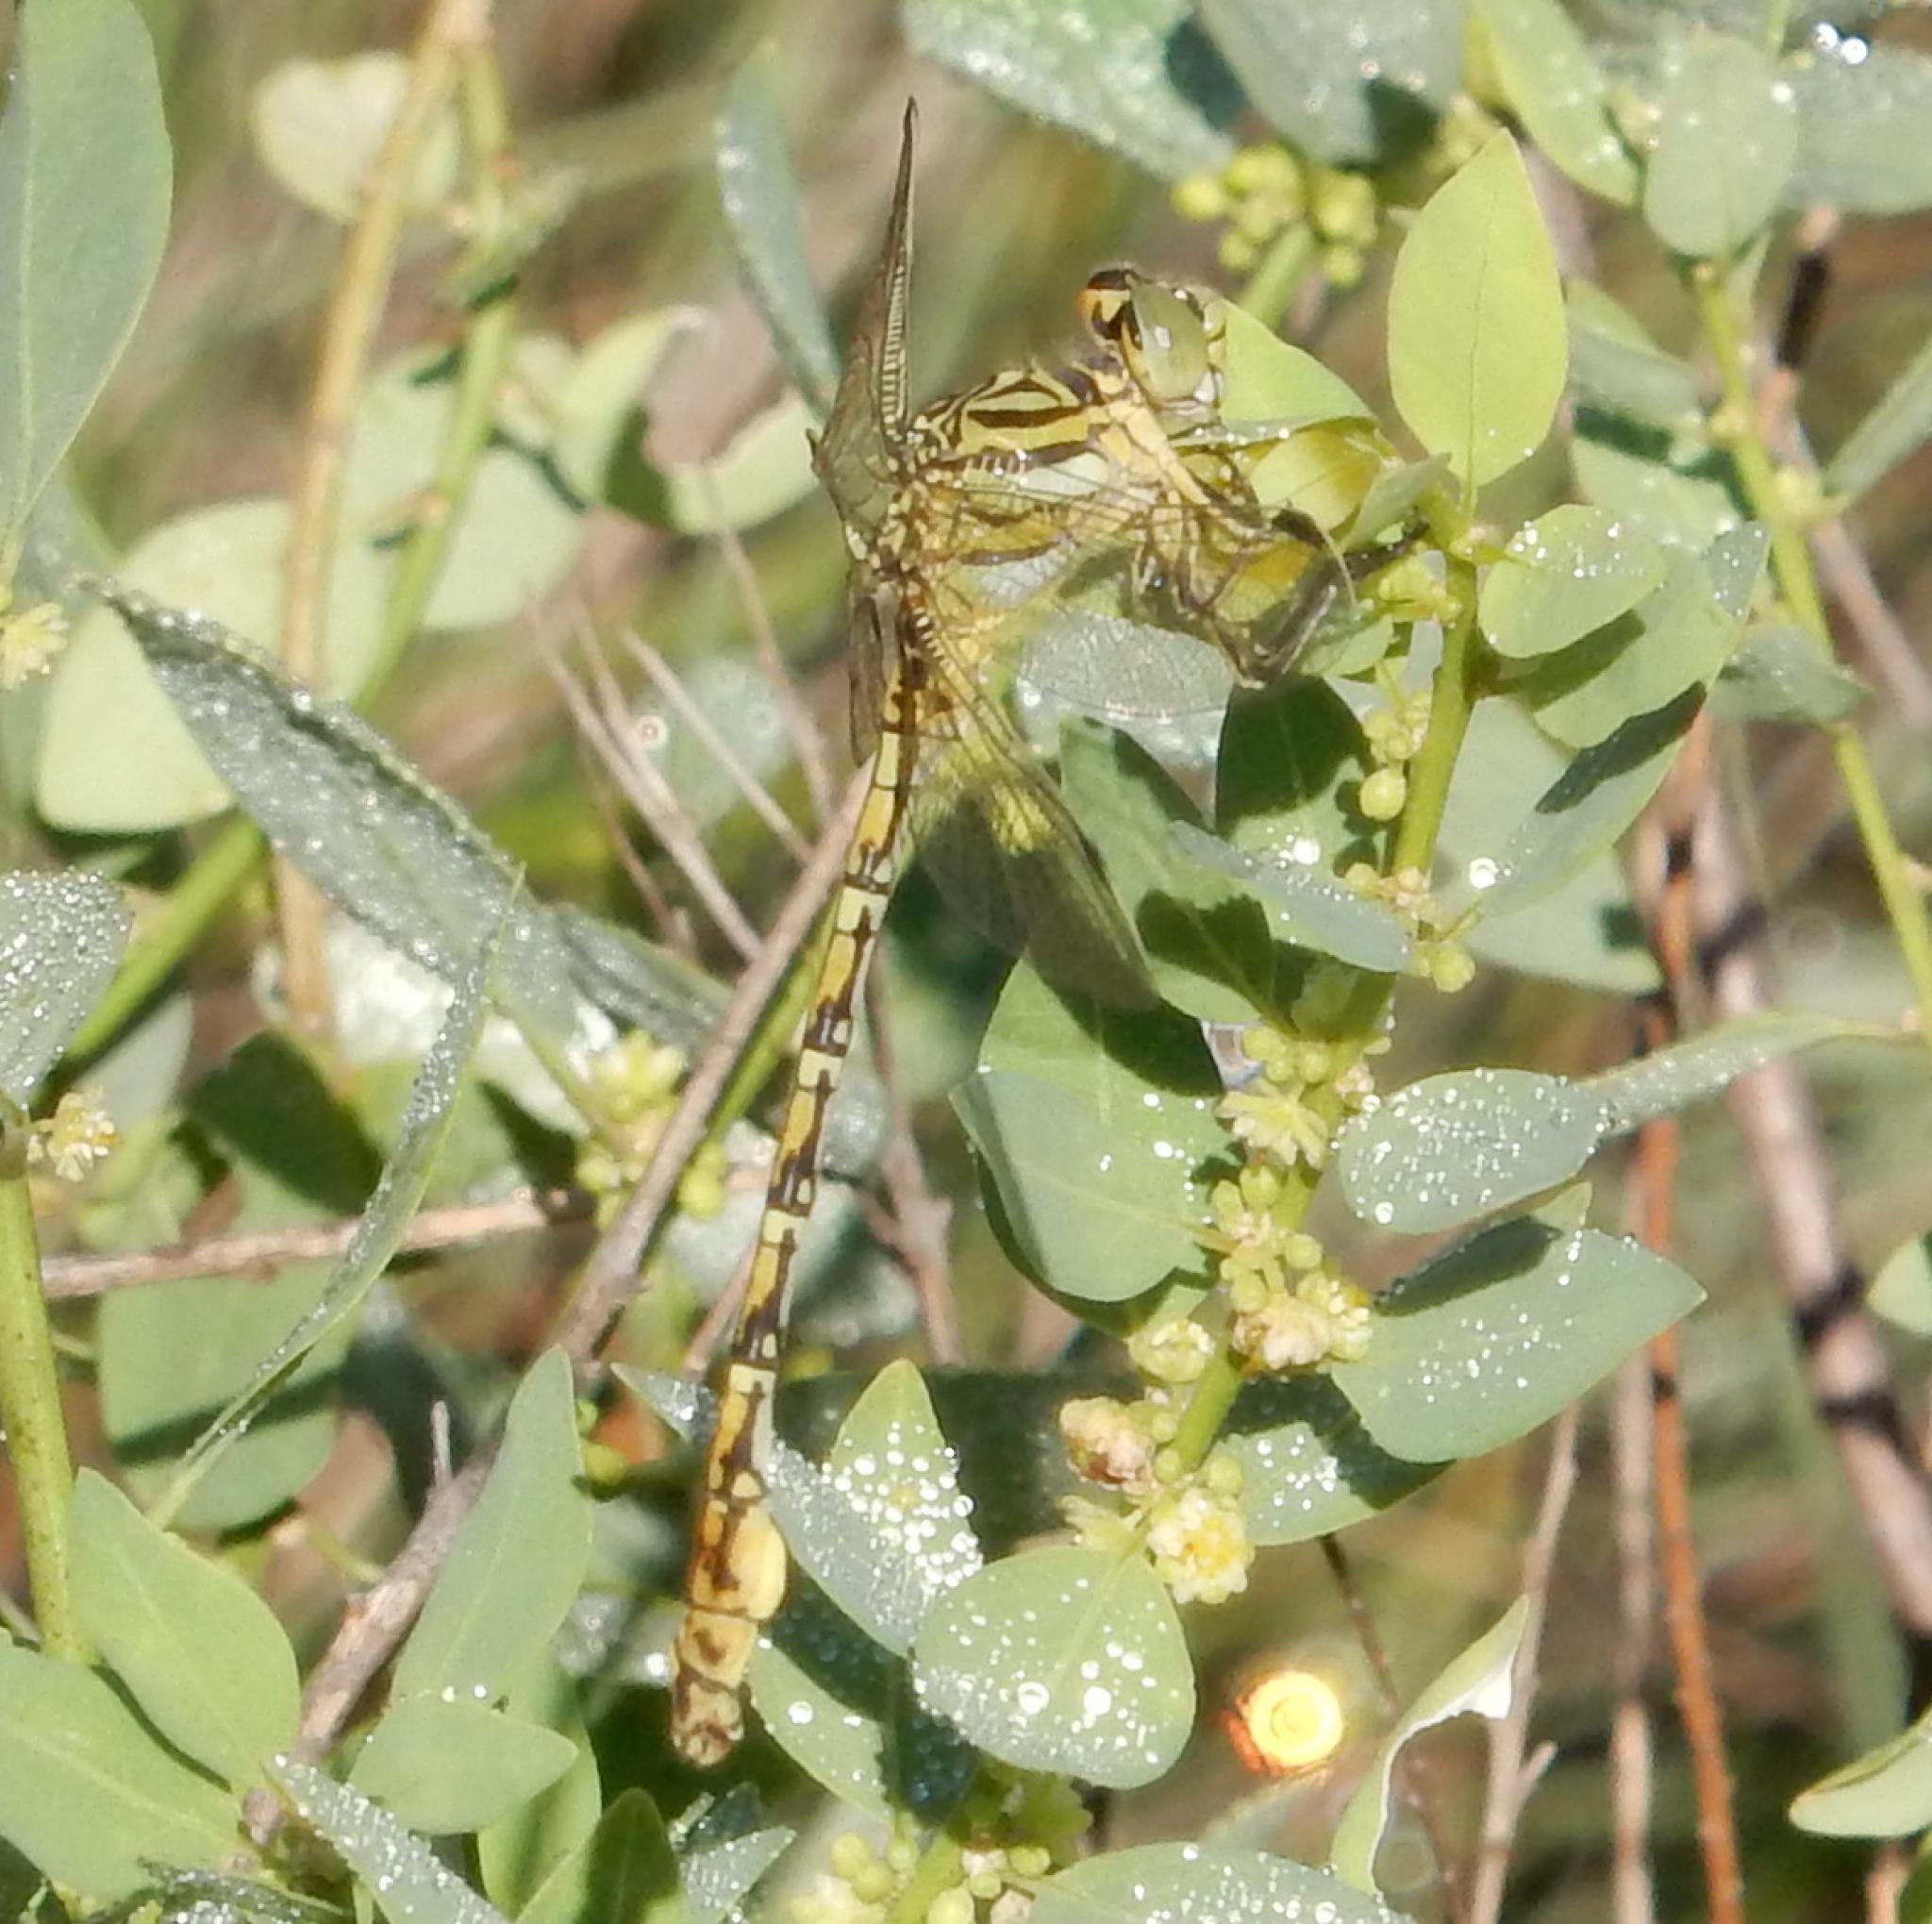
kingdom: Animalia
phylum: Arthropoda
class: Insecta
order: Odonata
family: Gomphidae
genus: Ceratogomphus
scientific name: Ceratogomphus pictus
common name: Common thorntail
